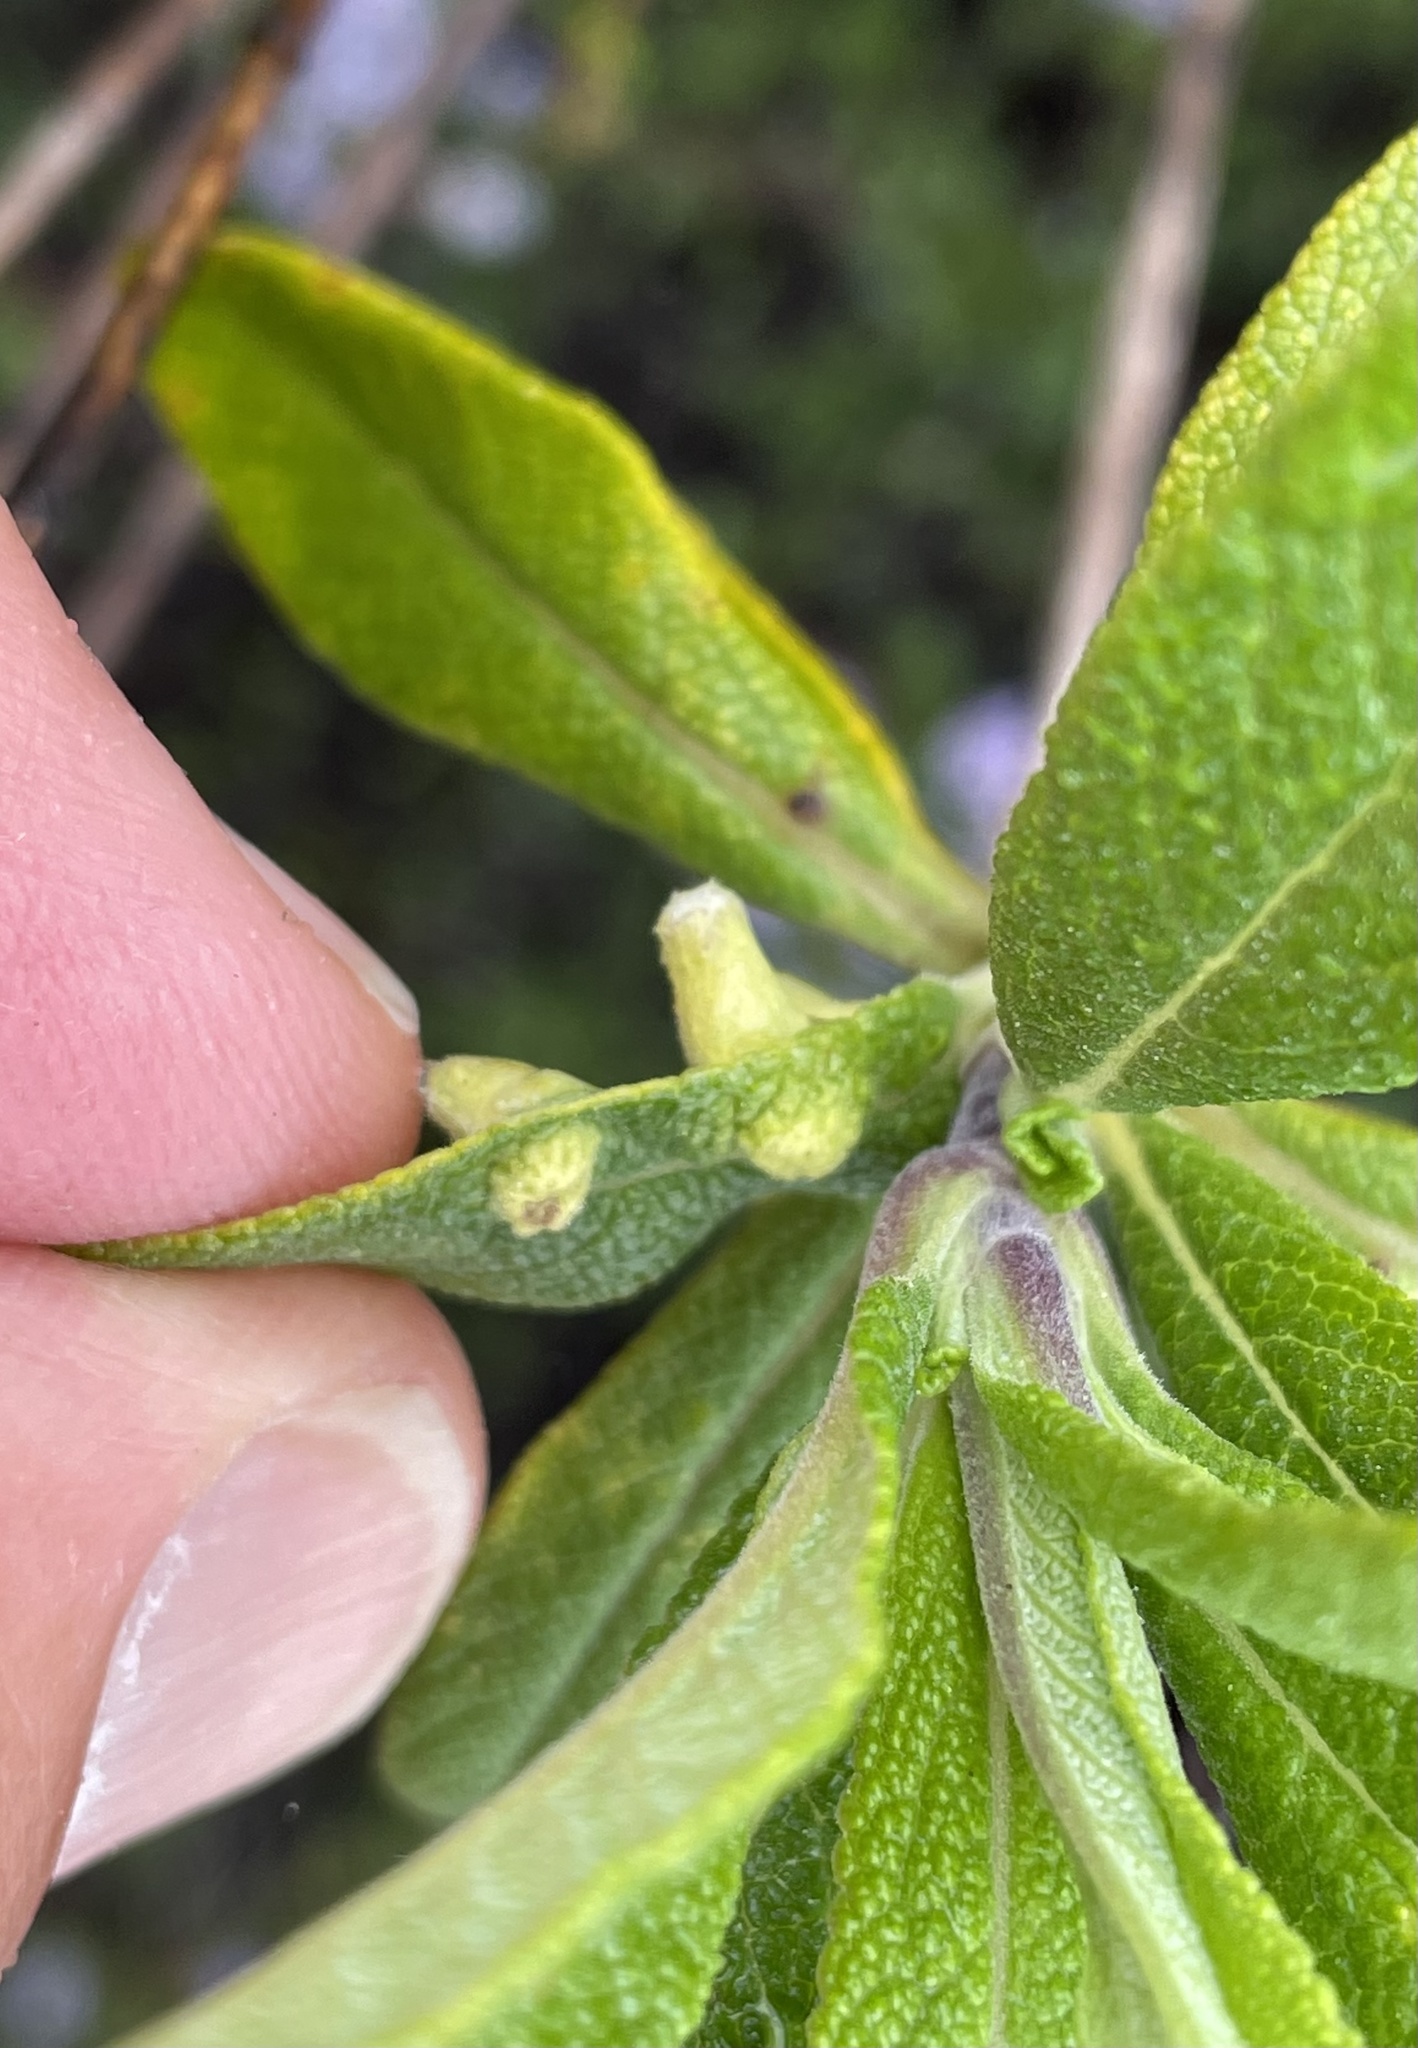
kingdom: Animalia
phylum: Arthropoda
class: Insecta
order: Diptera
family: Cecidomyiidae
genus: Rhopalomyia
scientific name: Rhopalomyia audibertiae
